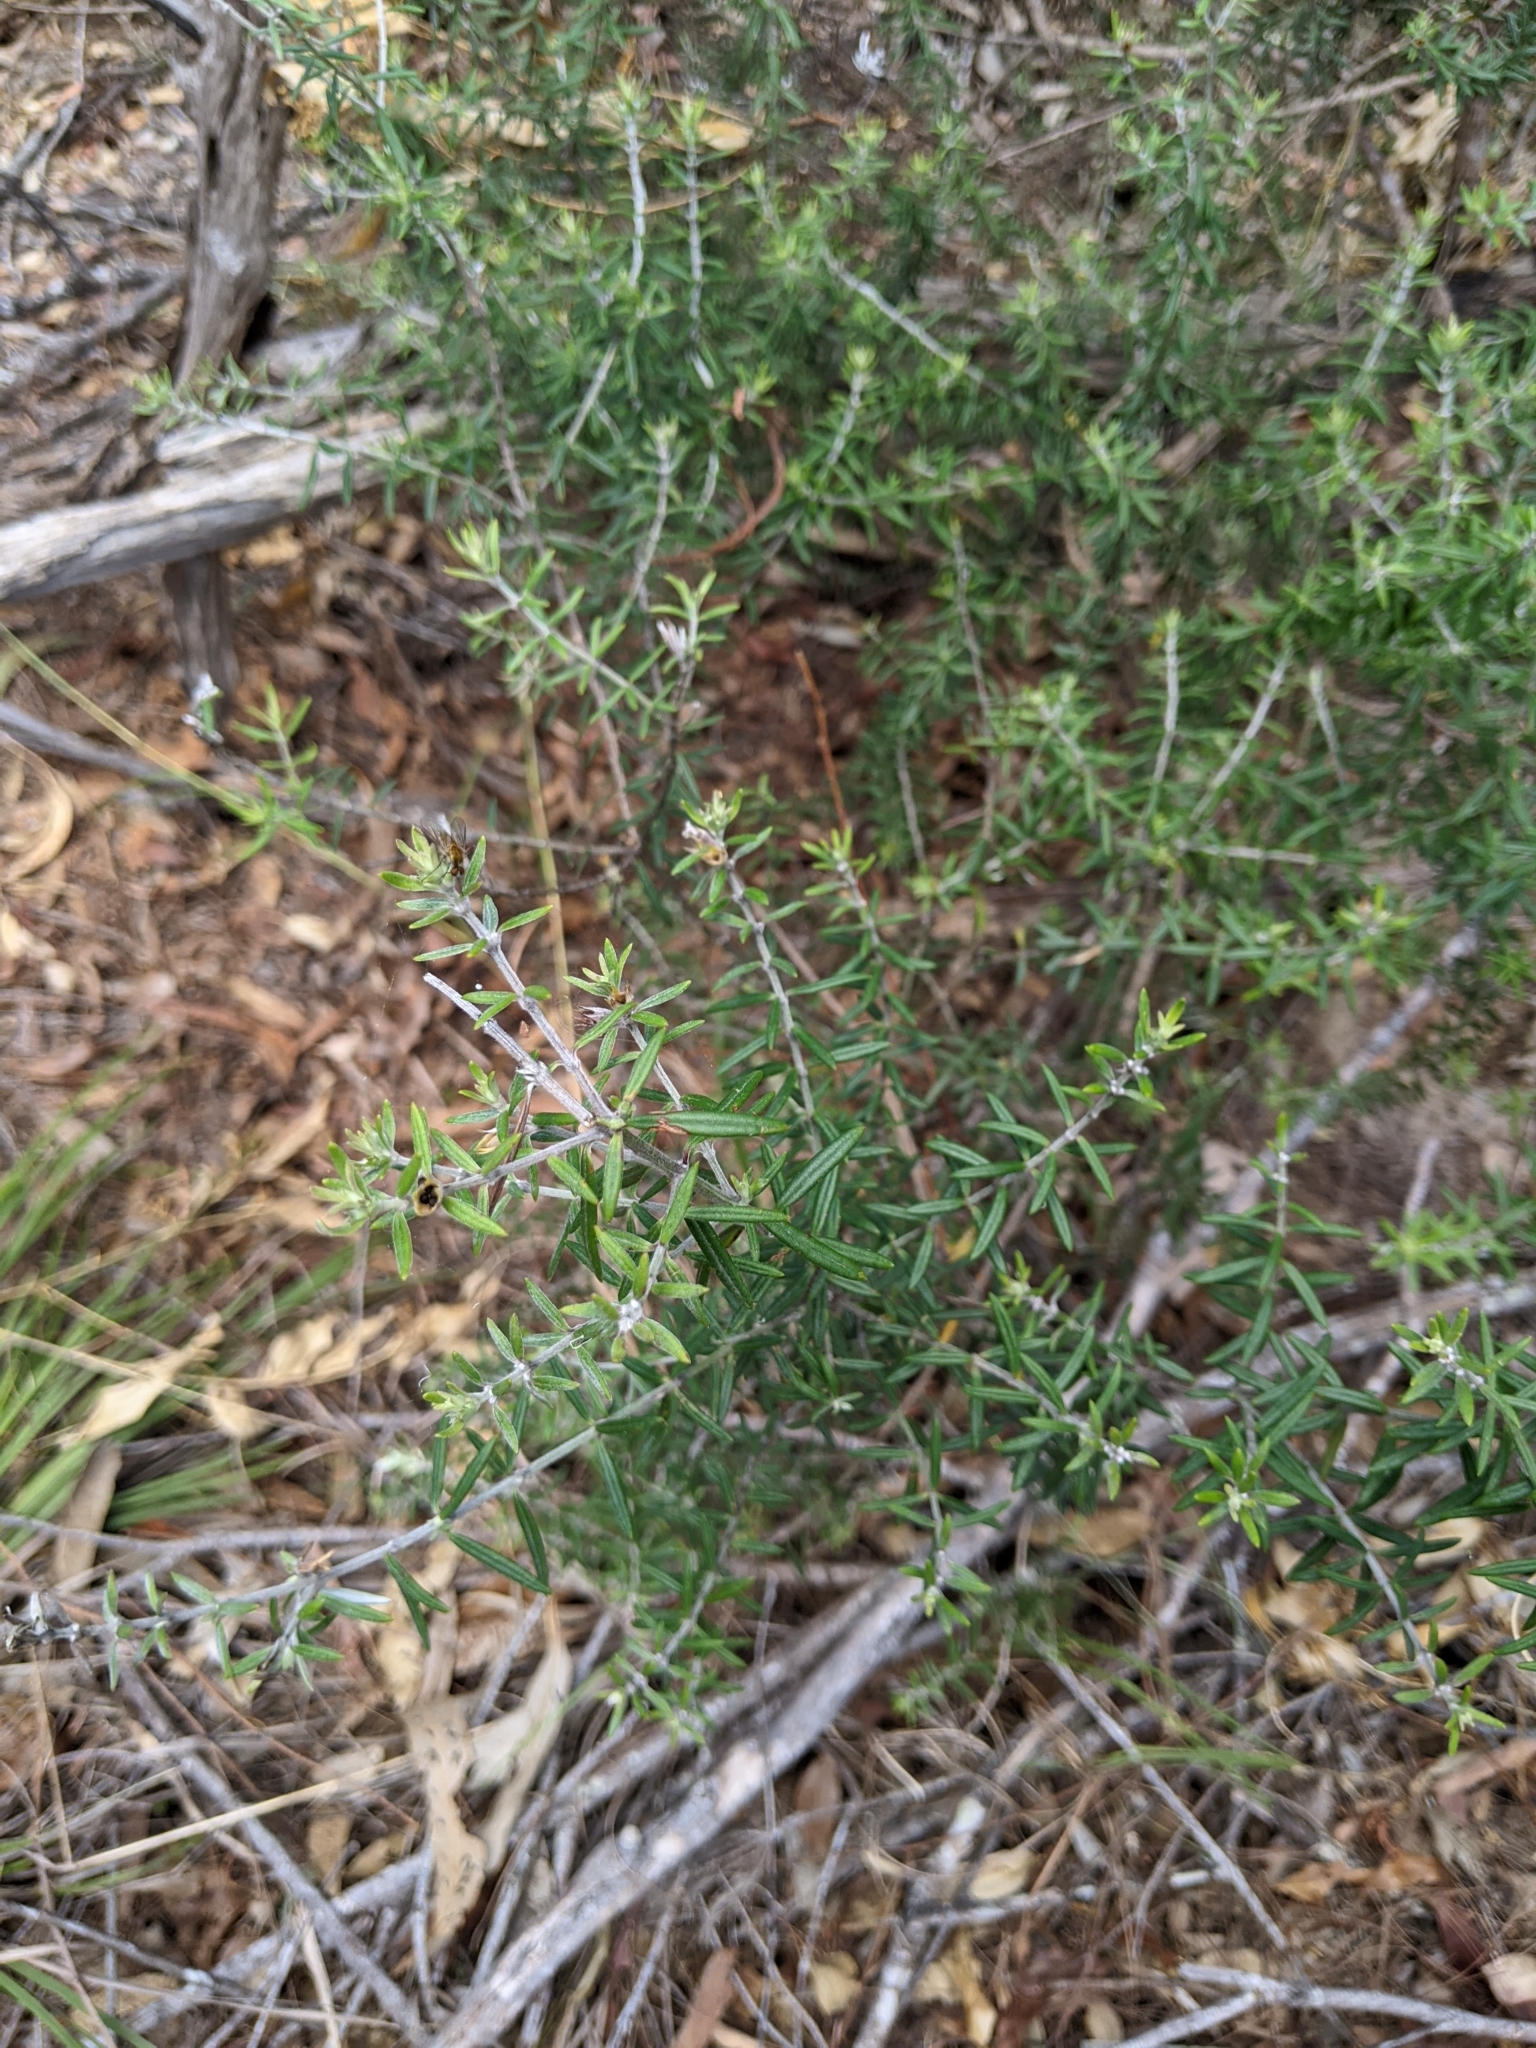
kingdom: Plantae
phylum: Tracheophyta
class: Magnoliopsida
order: Lamiales
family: Lamiaceae
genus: Westringia
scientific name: Westringia eremicola
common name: Slender western-rosemary
